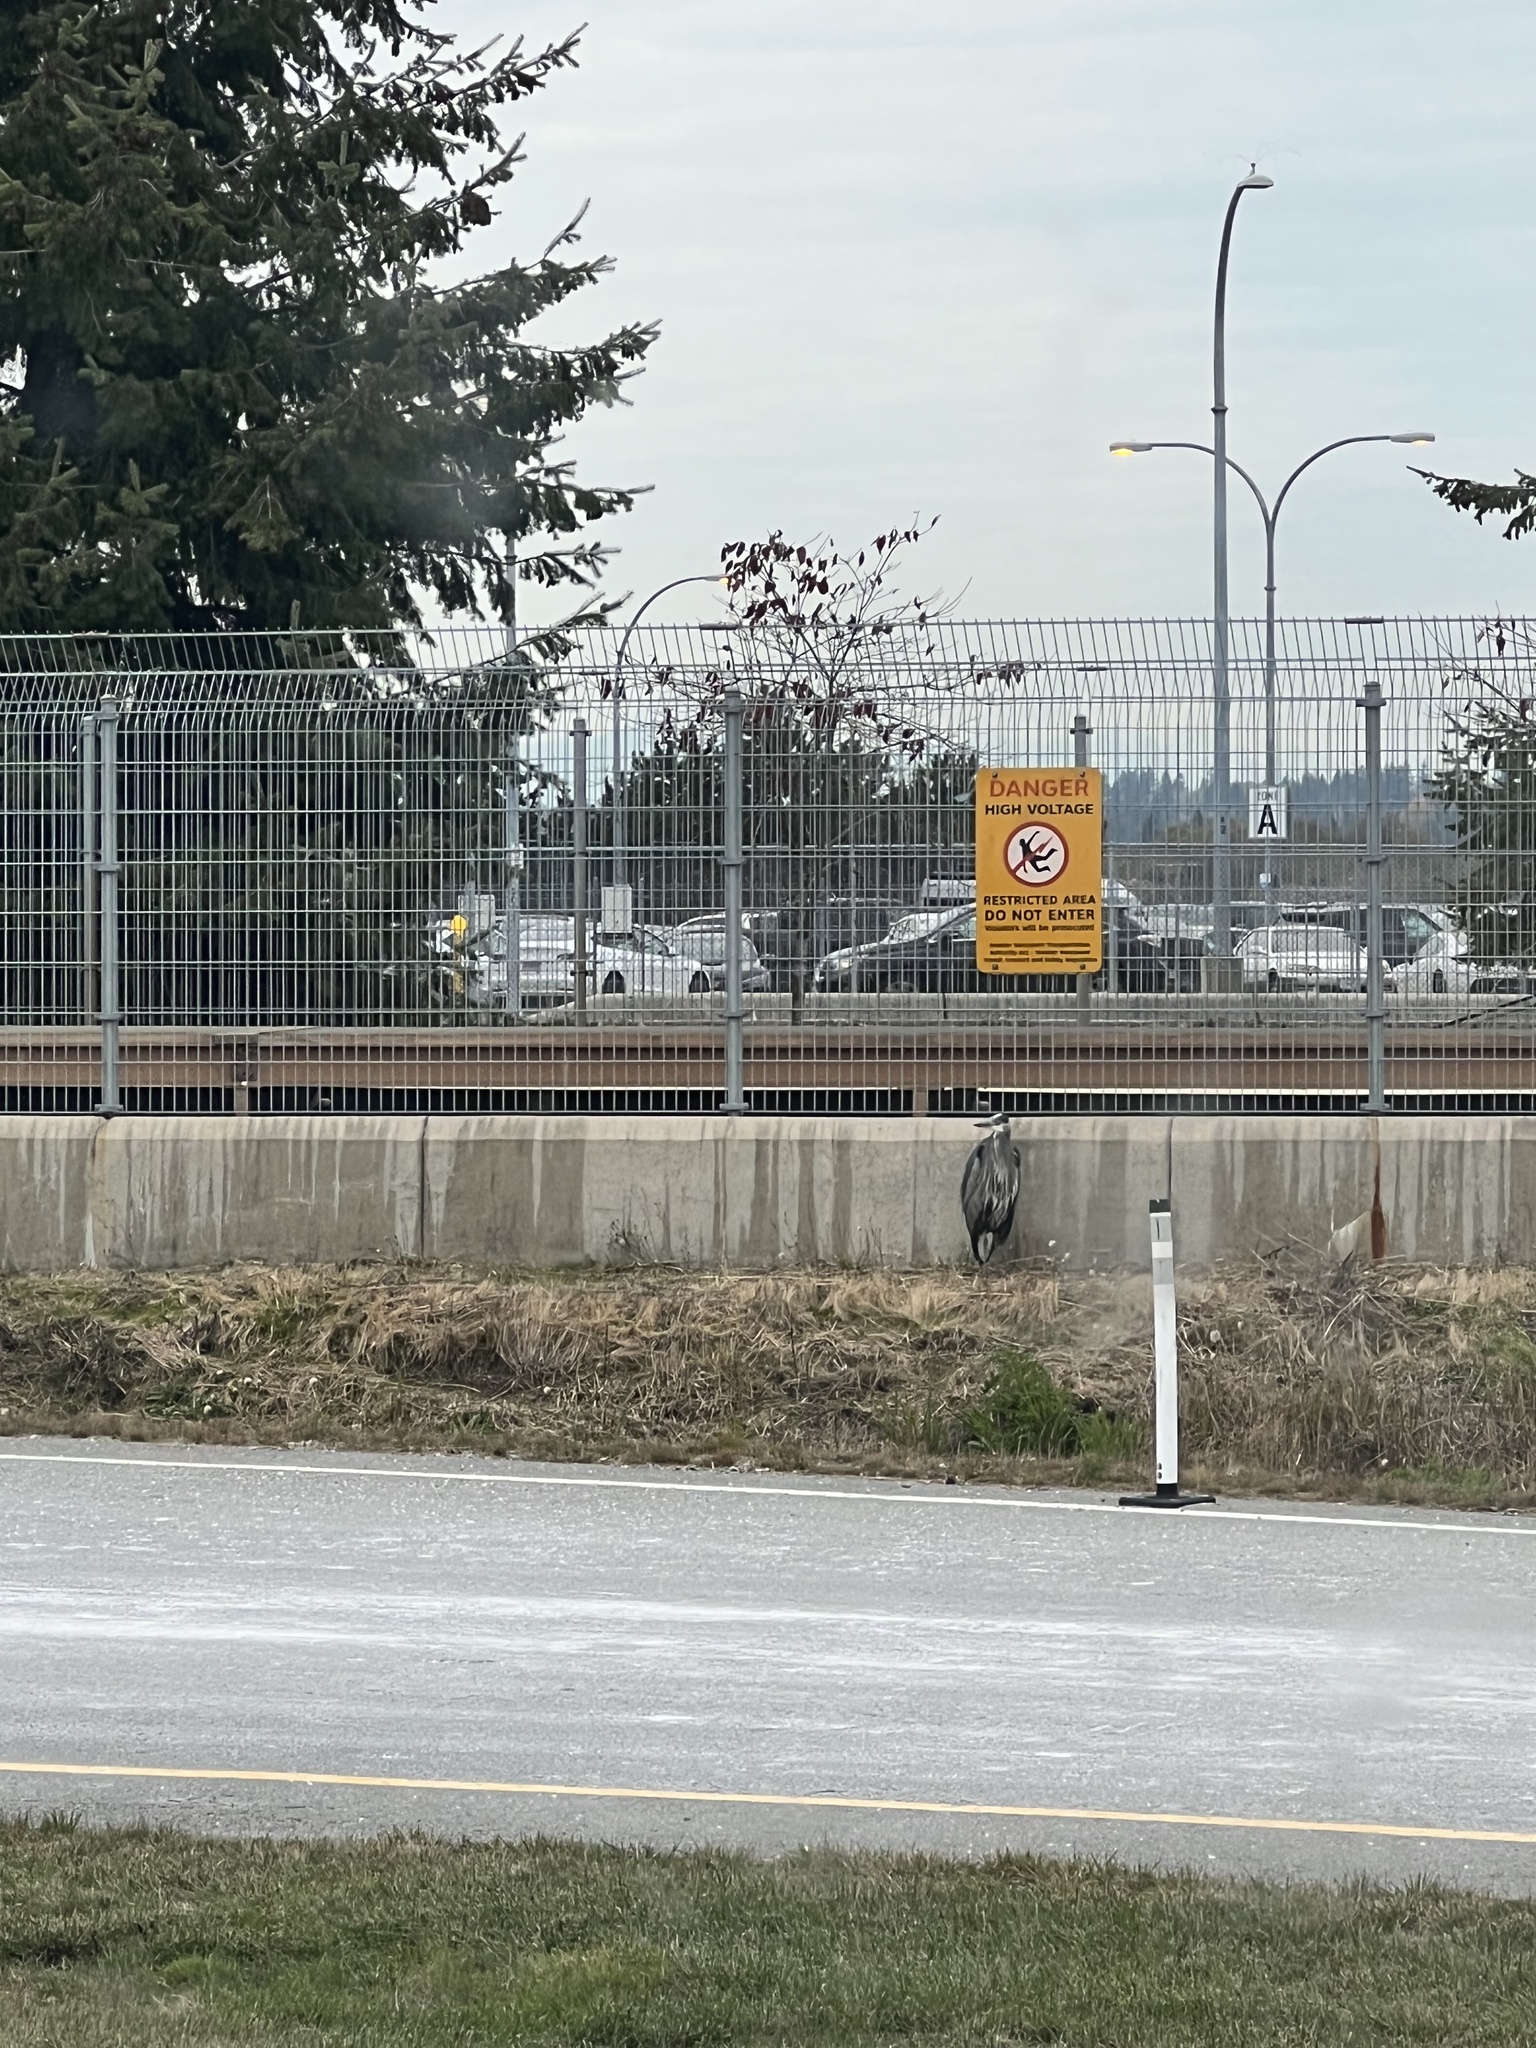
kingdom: Animalia
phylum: Chordata
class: Aves
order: Pelecaniformes
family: Ardeidae
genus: Ardea
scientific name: Ardea herodias
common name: Great blue heron
